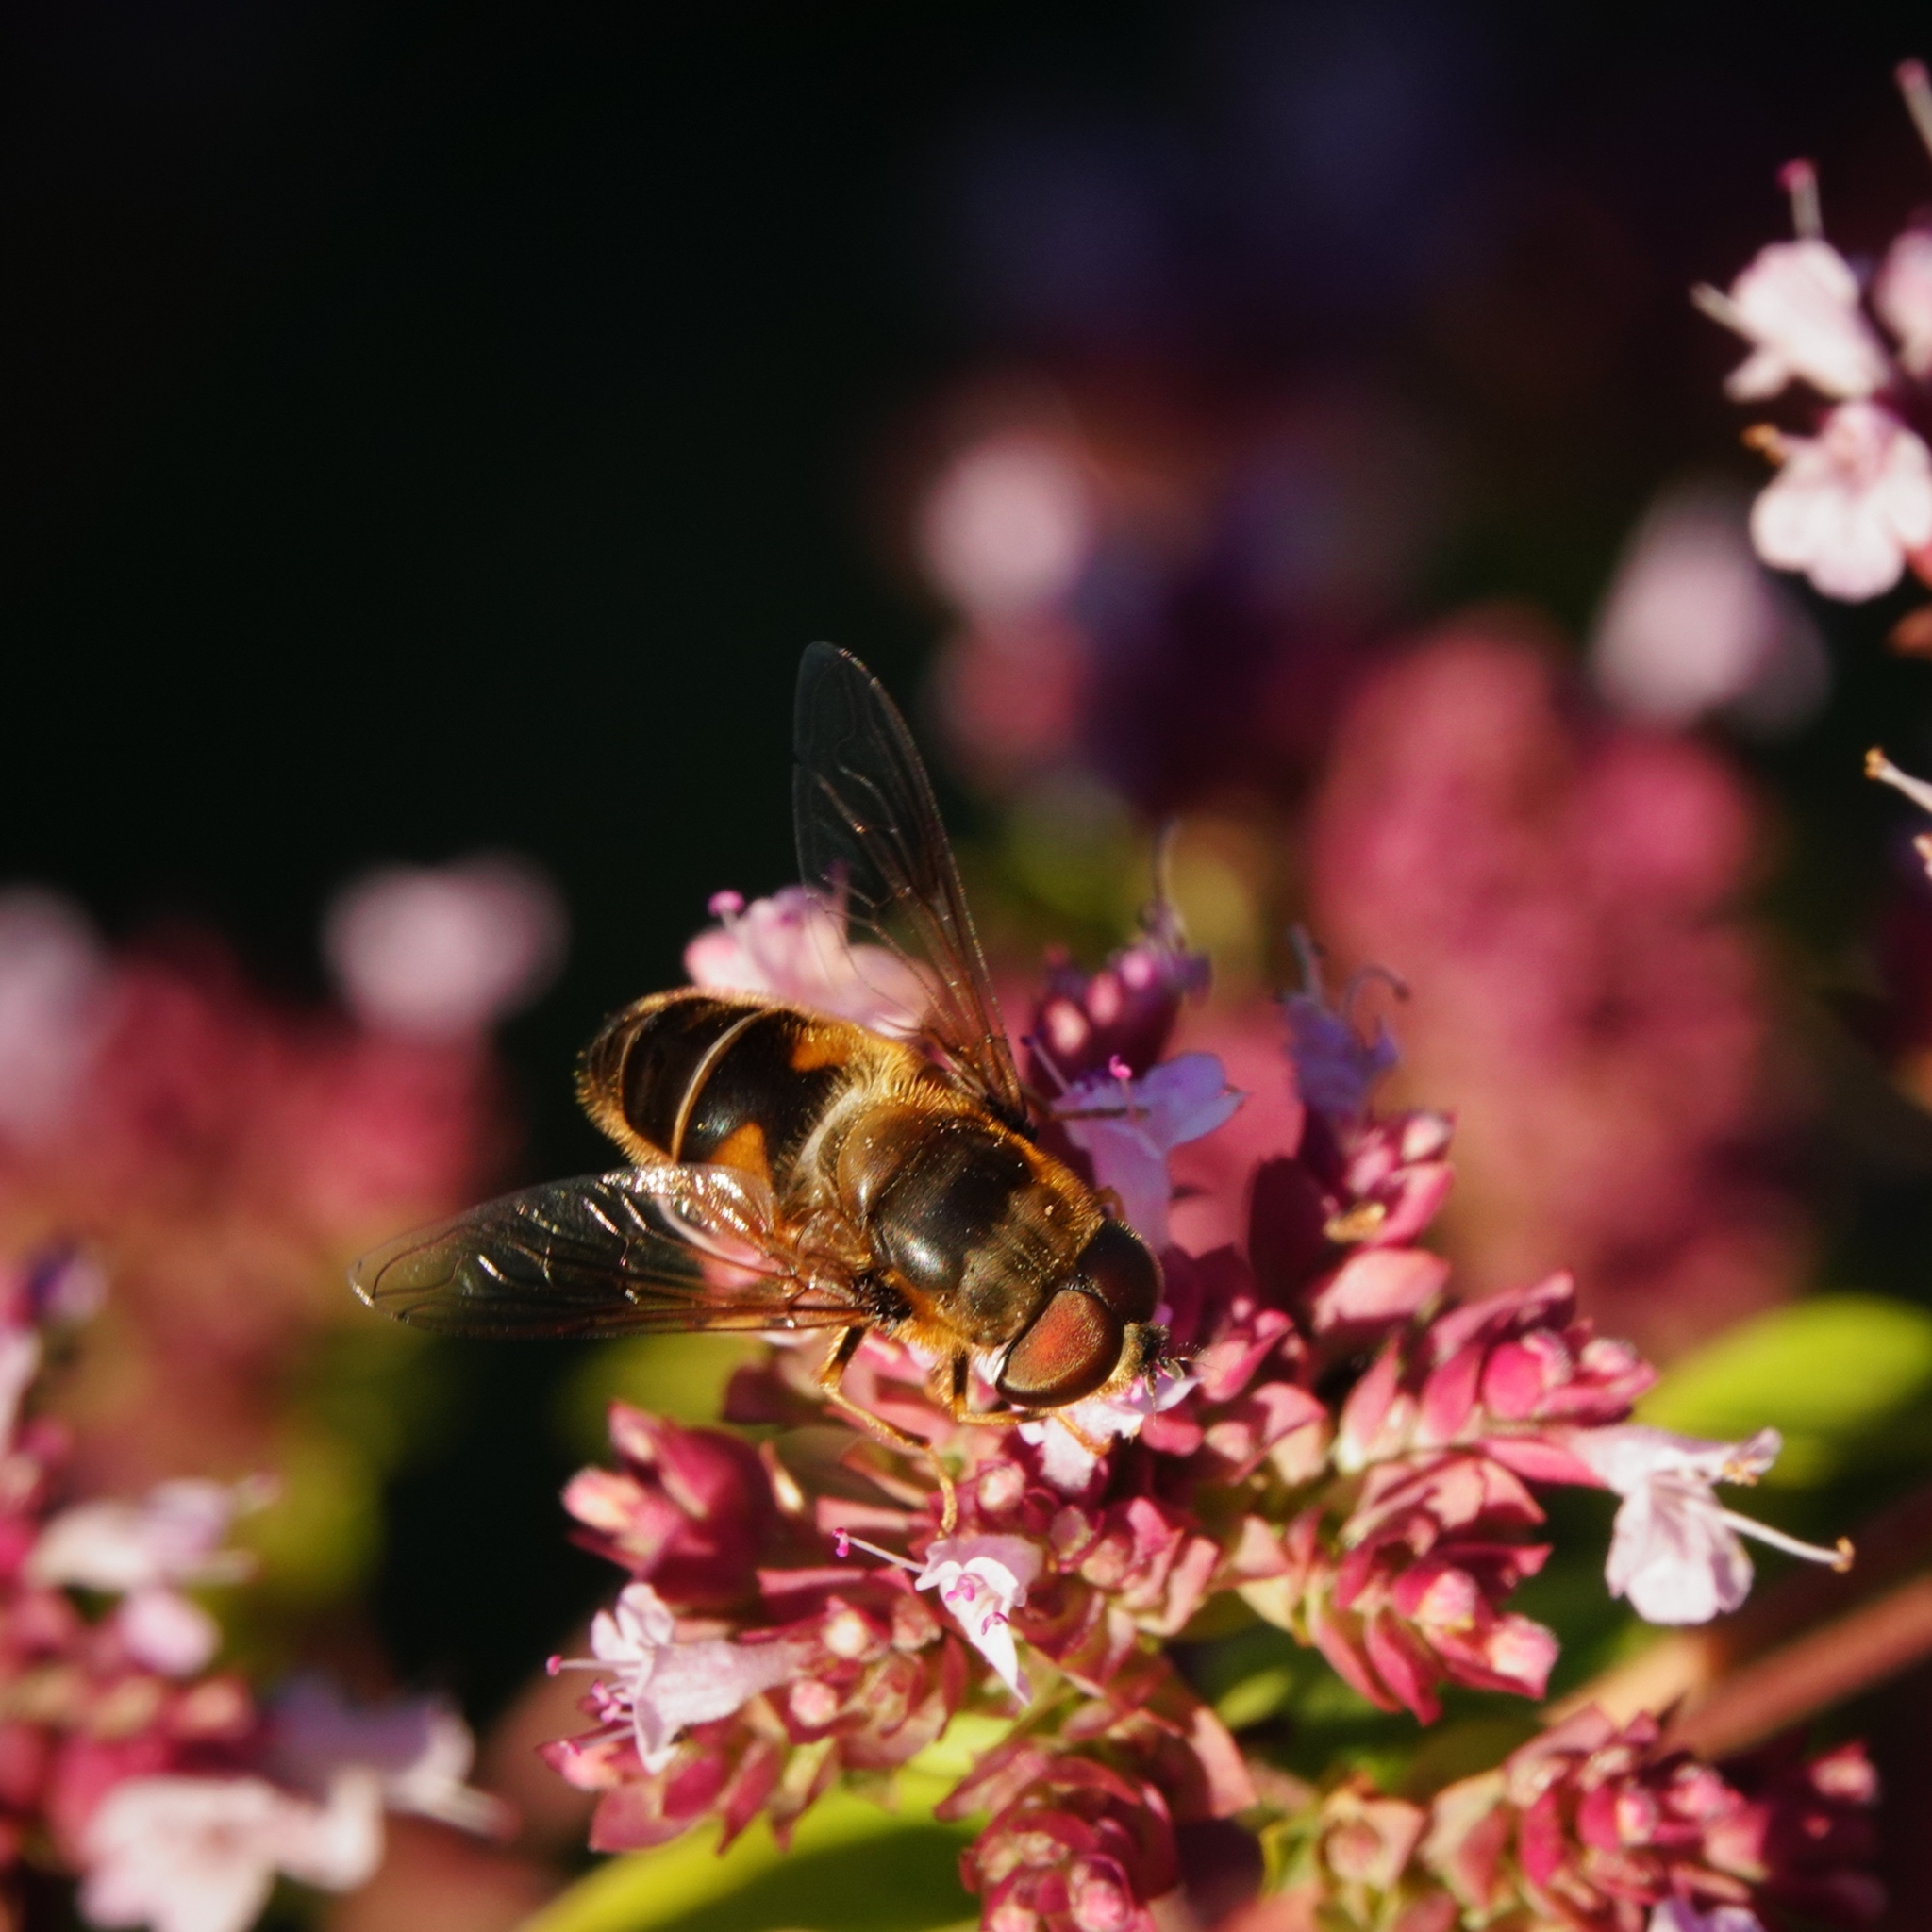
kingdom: Animalia
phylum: Arthropoda
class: Insecta
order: Diptera
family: Syrphidae
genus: Eristalis
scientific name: Eristalis pertinax
